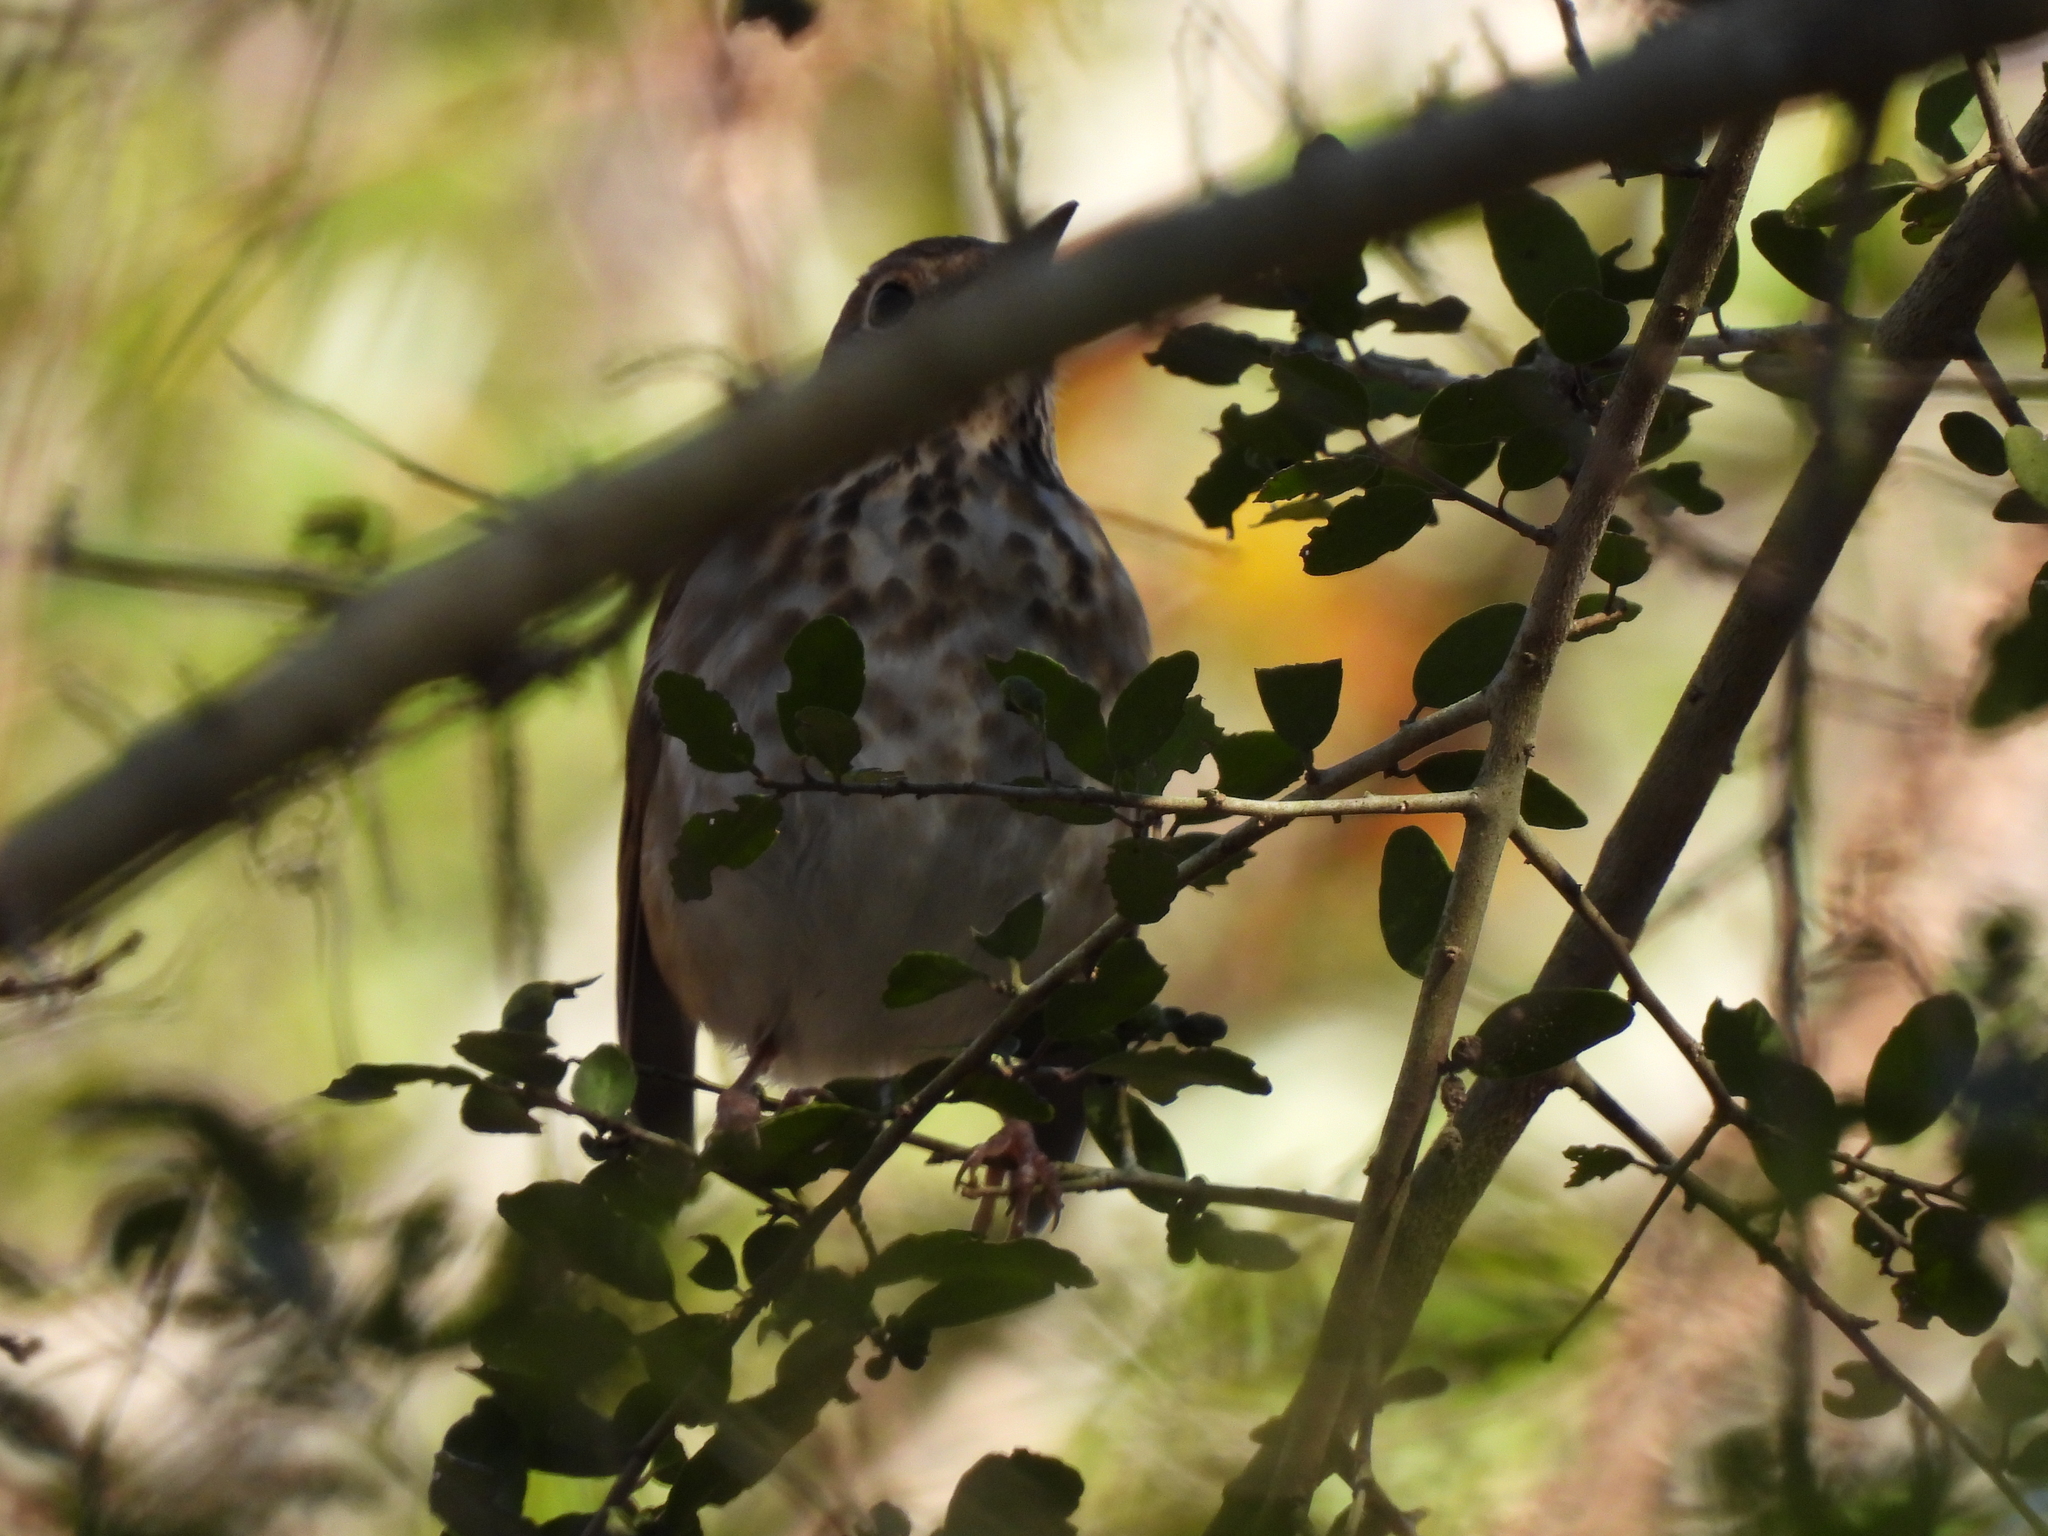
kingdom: Animalia
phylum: Chordata
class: Aves
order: Passeriformes
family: Turdidae
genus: Catharus
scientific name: Catharus guttatus
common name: Hermit thrush
